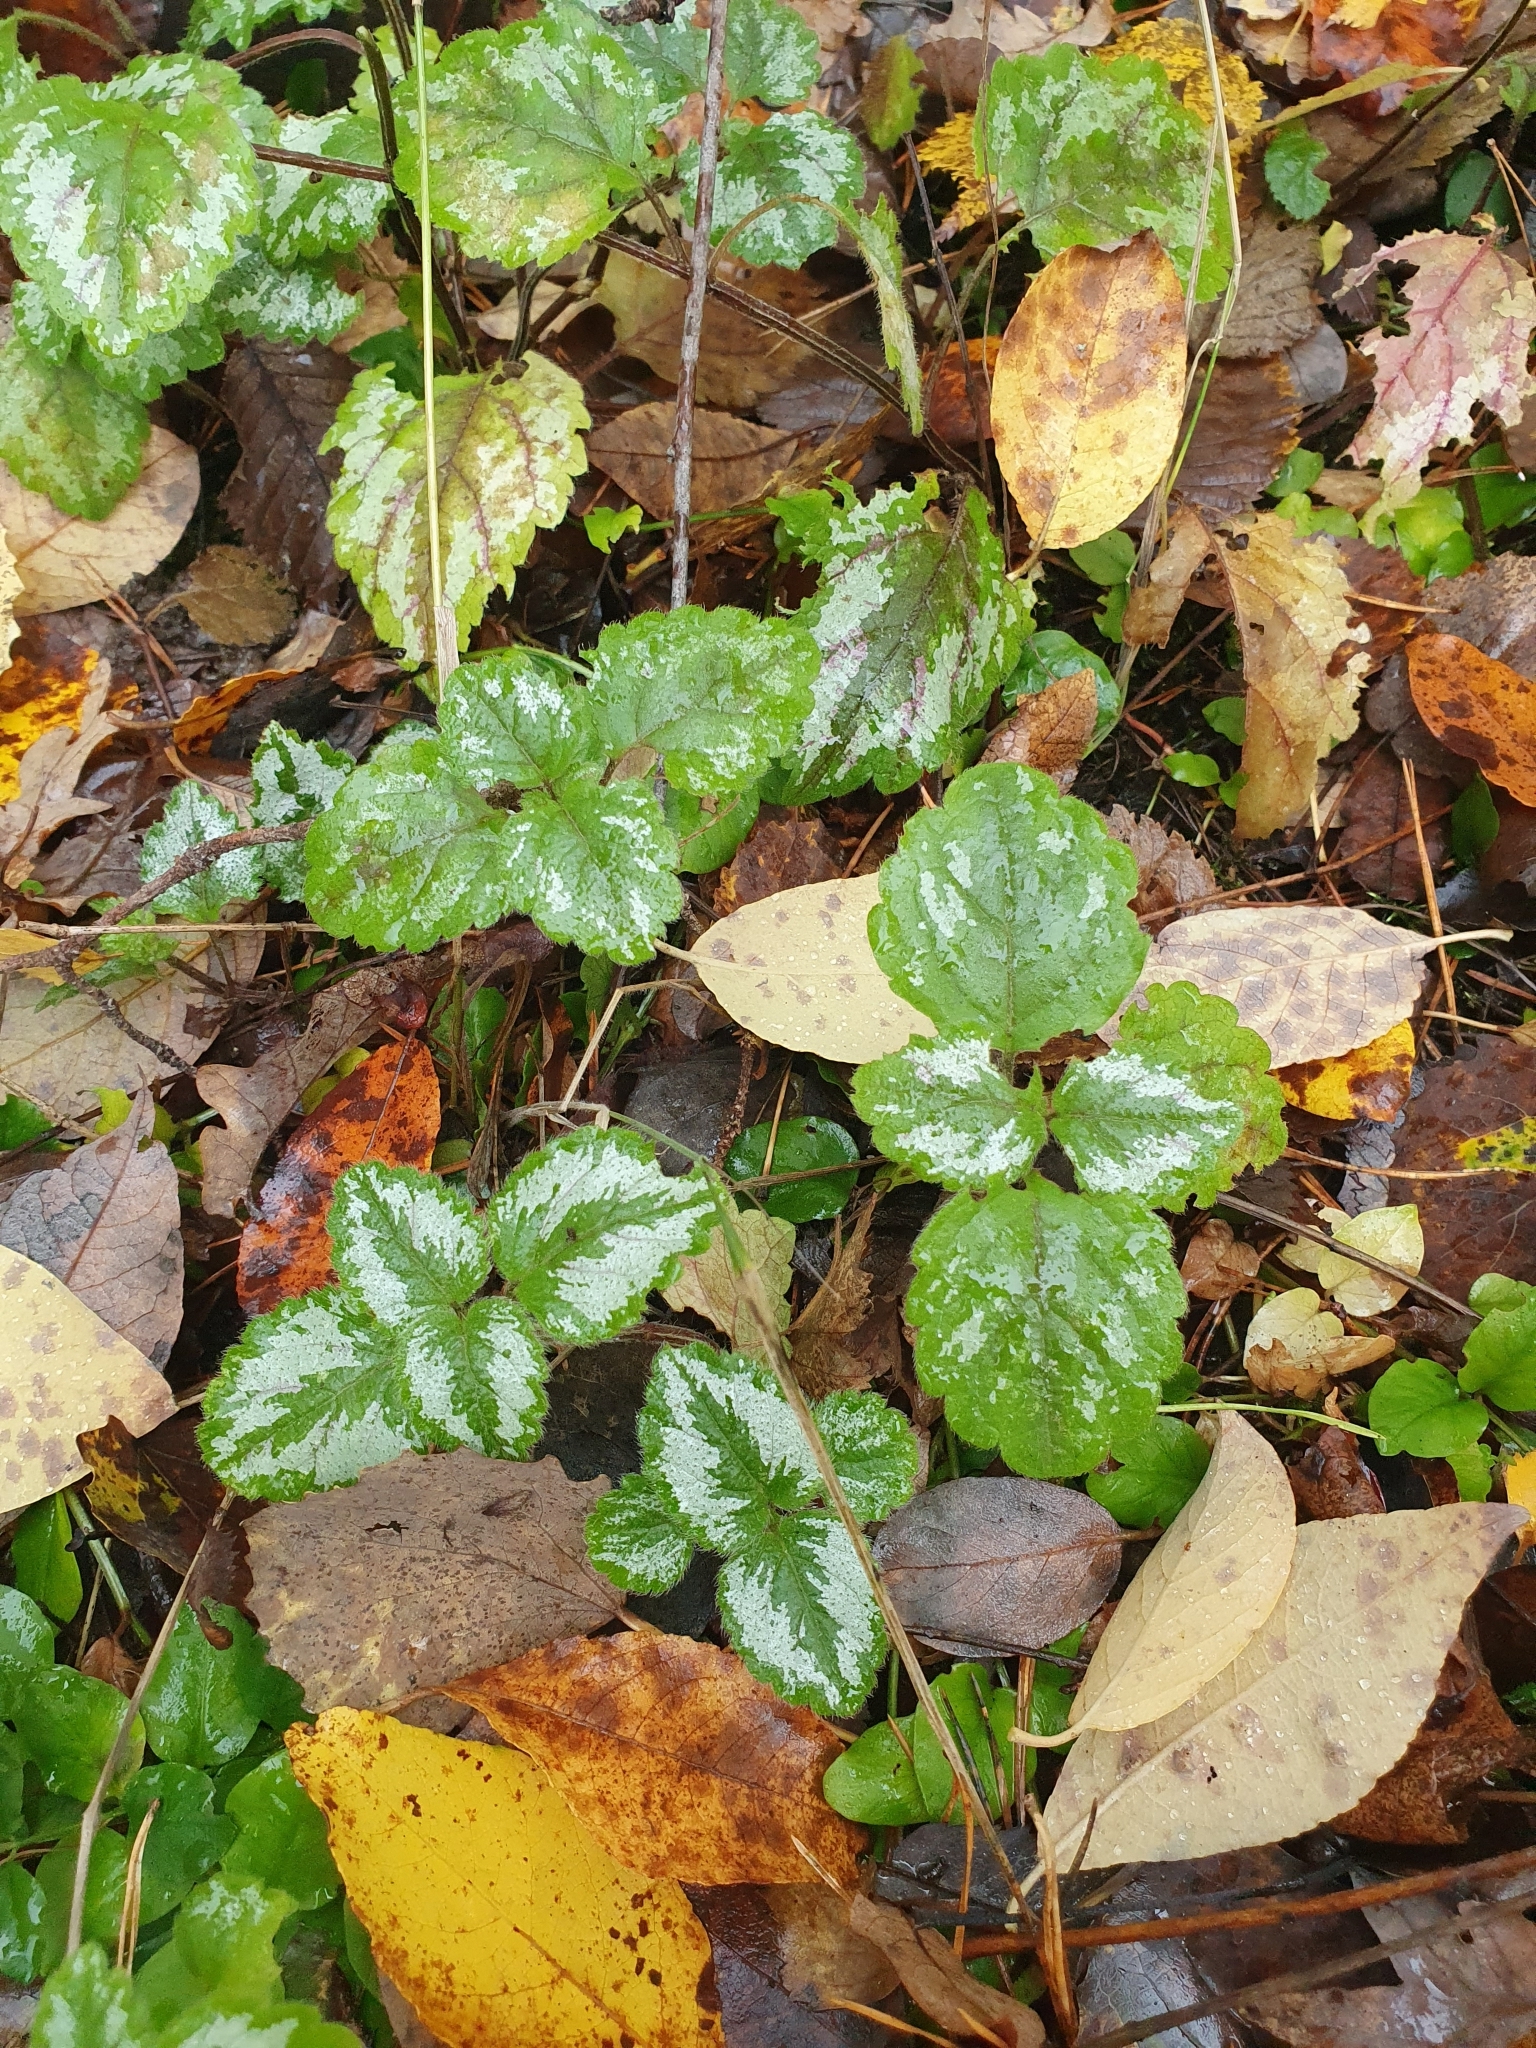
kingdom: Plantae
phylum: Tracheophyta
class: Magnoliopsida
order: Lamiales
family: Lamiaceae
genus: Lamium
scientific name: Lamium galeobdolon
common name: Yellow archangel
